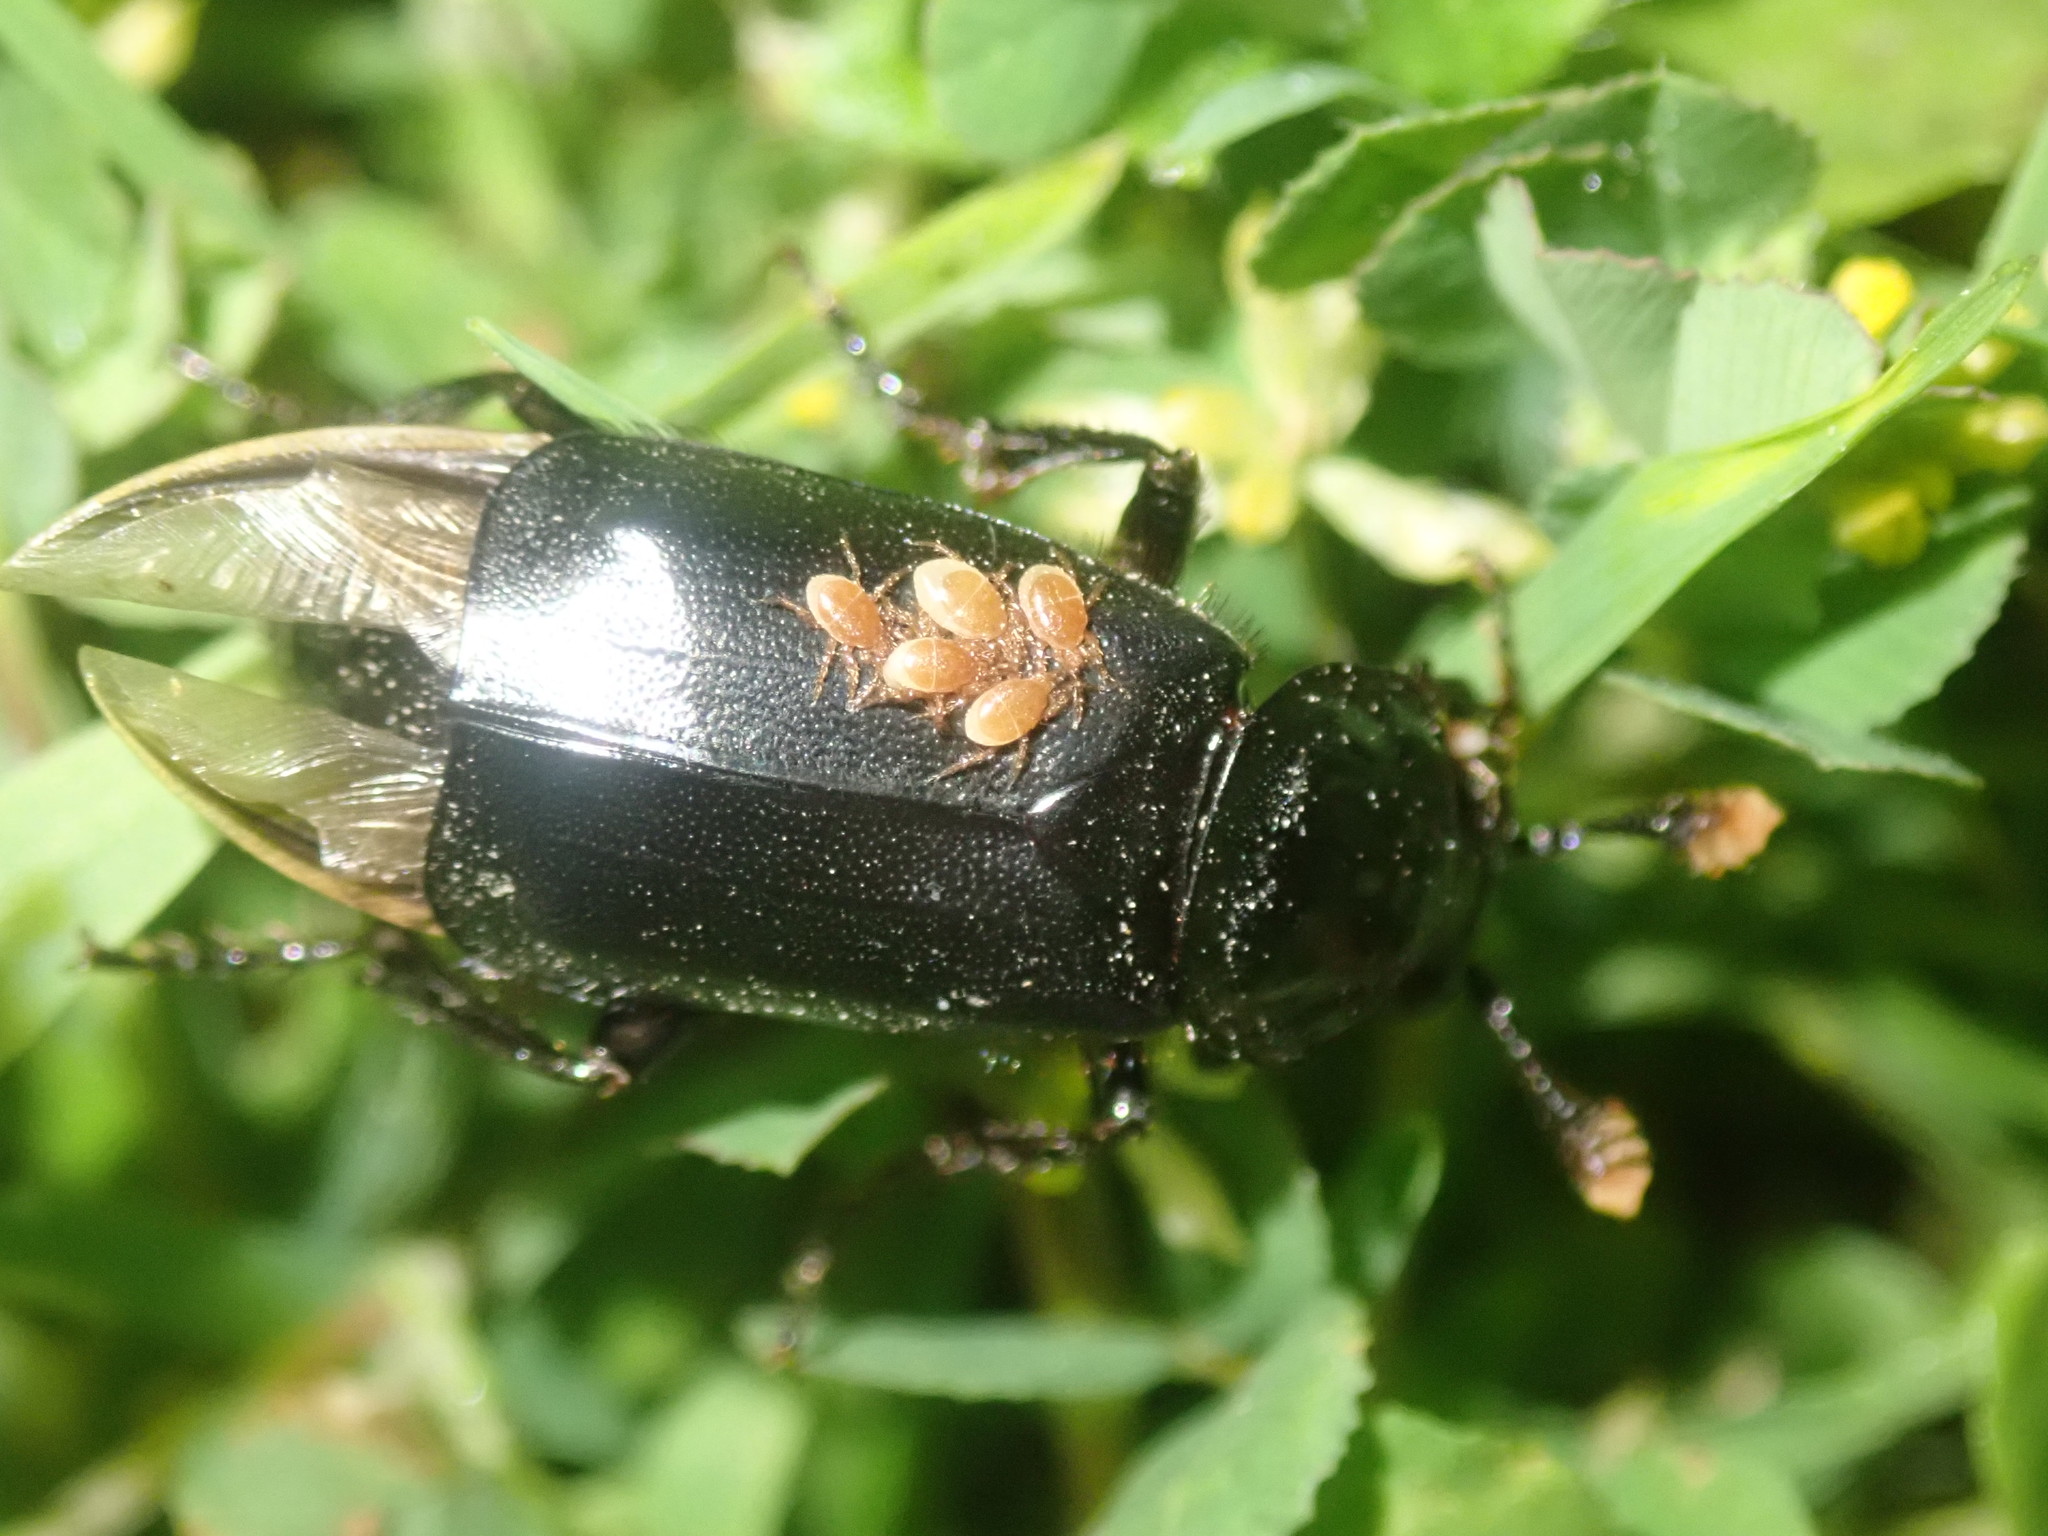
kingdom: Animalia
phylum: Arthropoda
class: Insecta
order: Coleoptera
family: Staphylinidae
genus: Nicrophorus
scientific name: Nicrophorus humator
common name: Black sexton beetle
